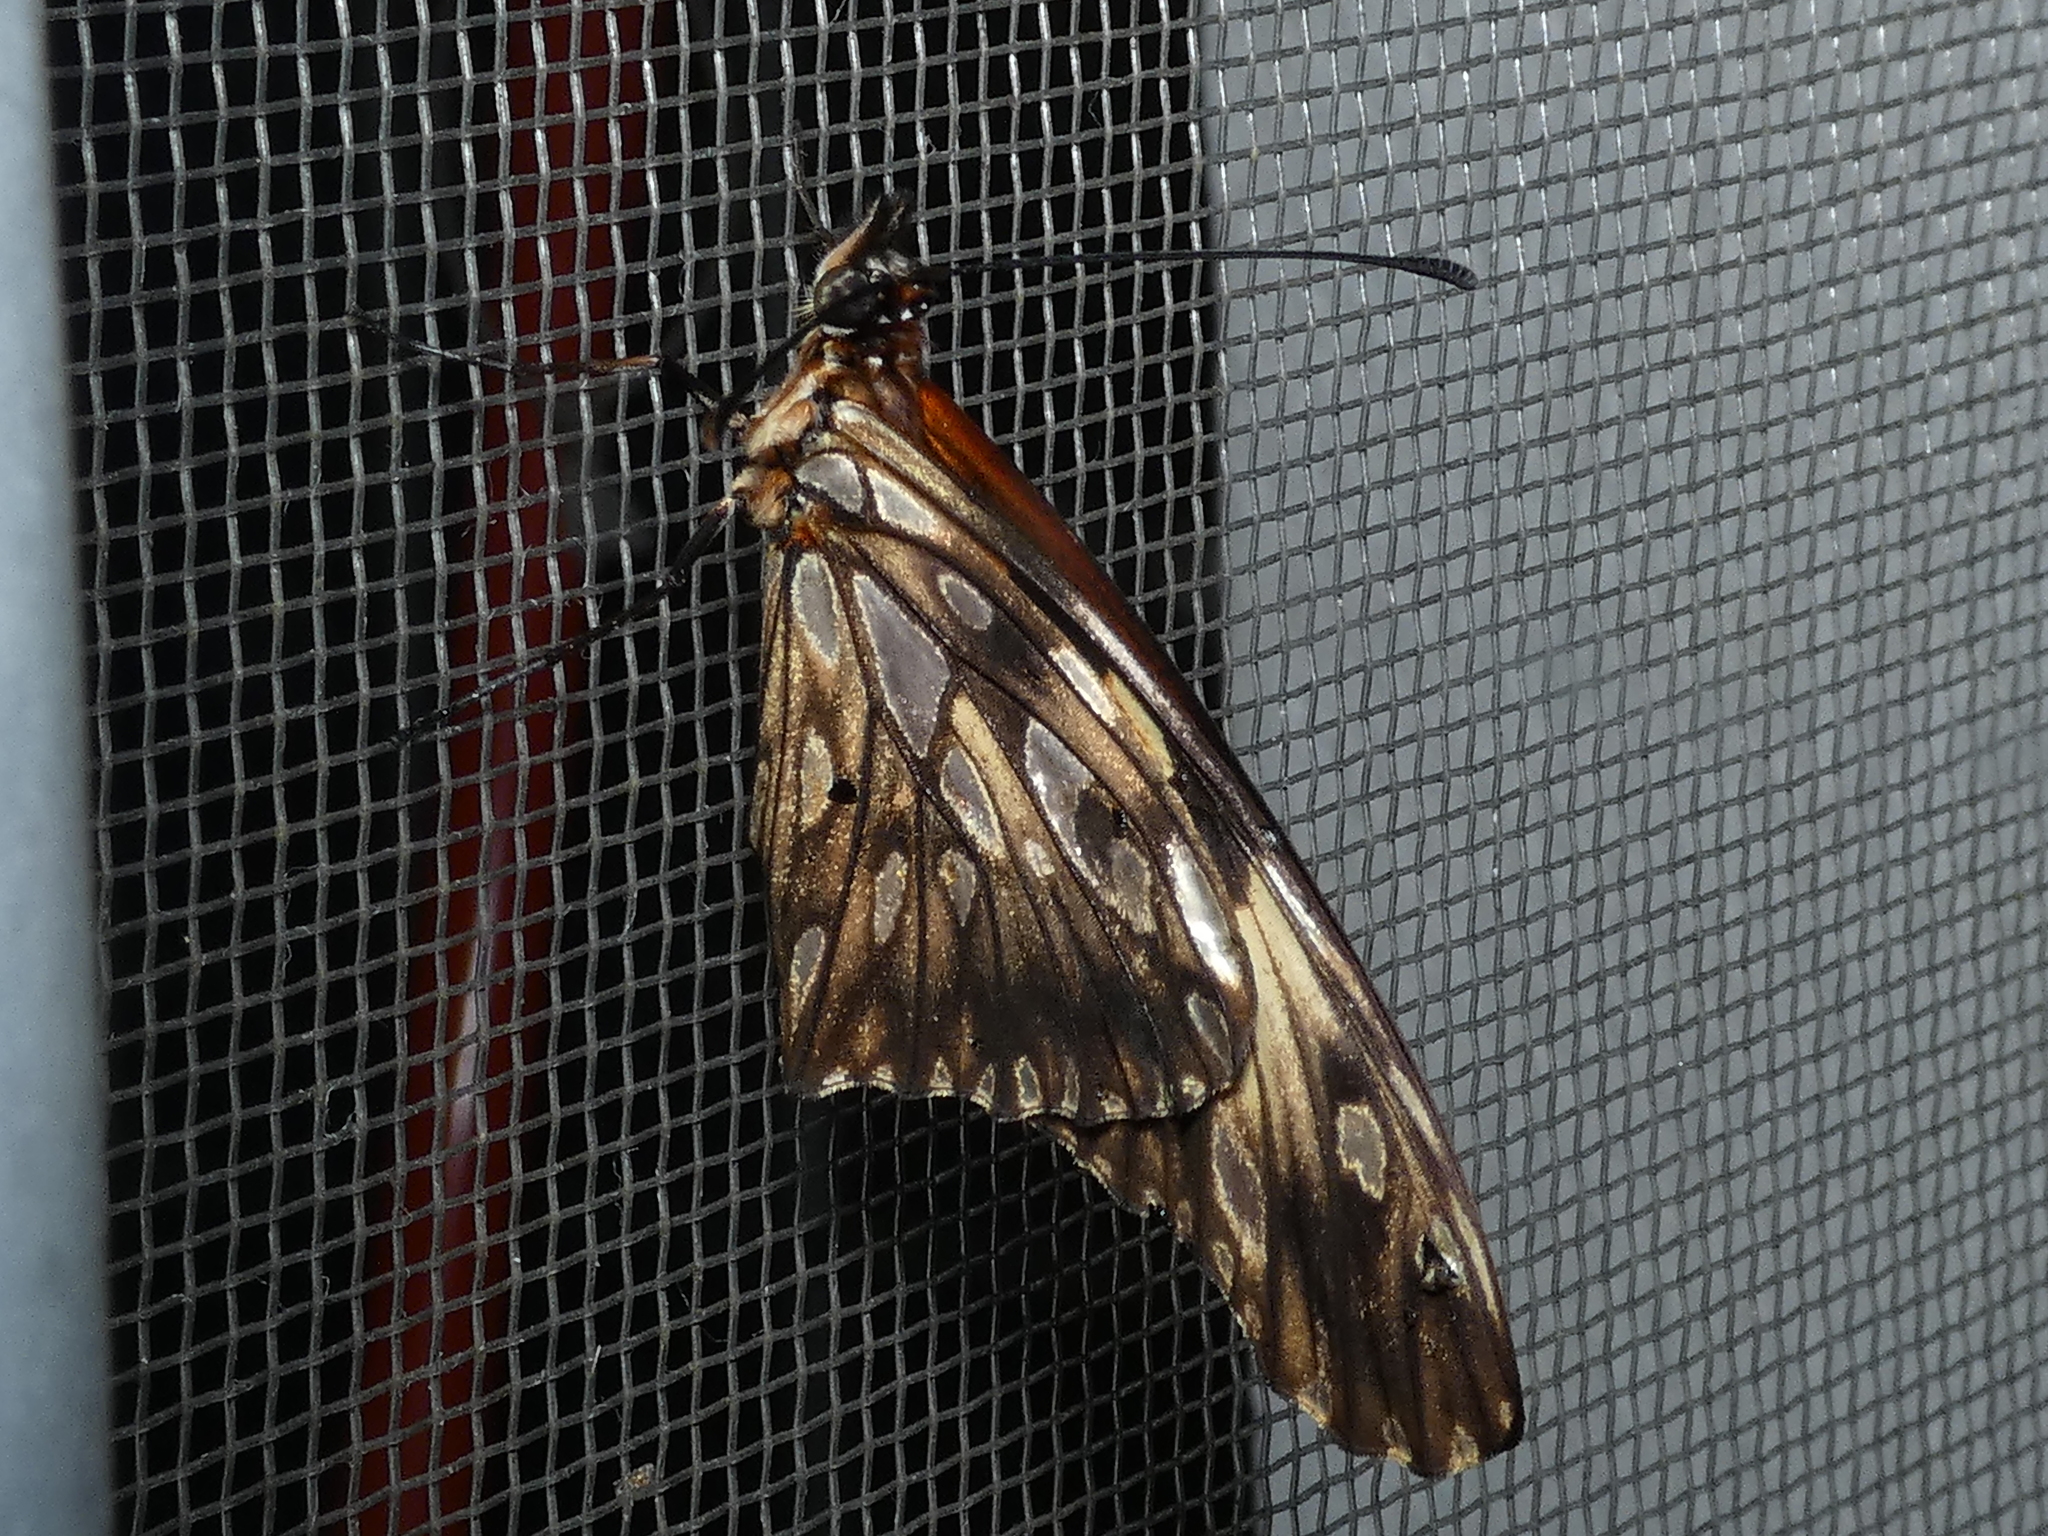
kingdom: Animalia
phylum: Arthropoda
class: Insecta
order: Lepidoptera
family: Nymphalidae
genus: Dione
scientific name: Dione juno
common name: Juno silverspot
